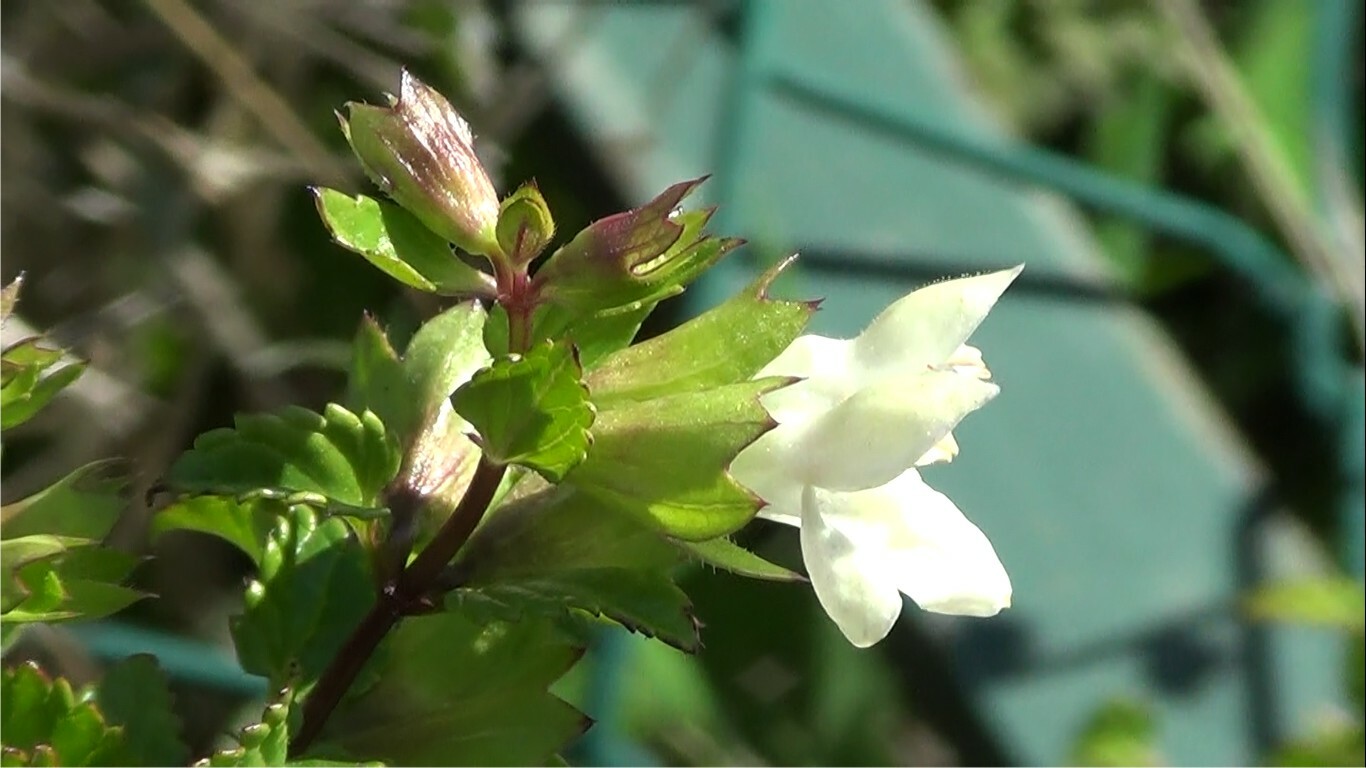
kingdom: Plantae
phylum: Tracheophyta
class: Magnoliopsida
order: Lamiales
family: Lamiaceae
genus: Prasium
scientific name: Prasium majus
